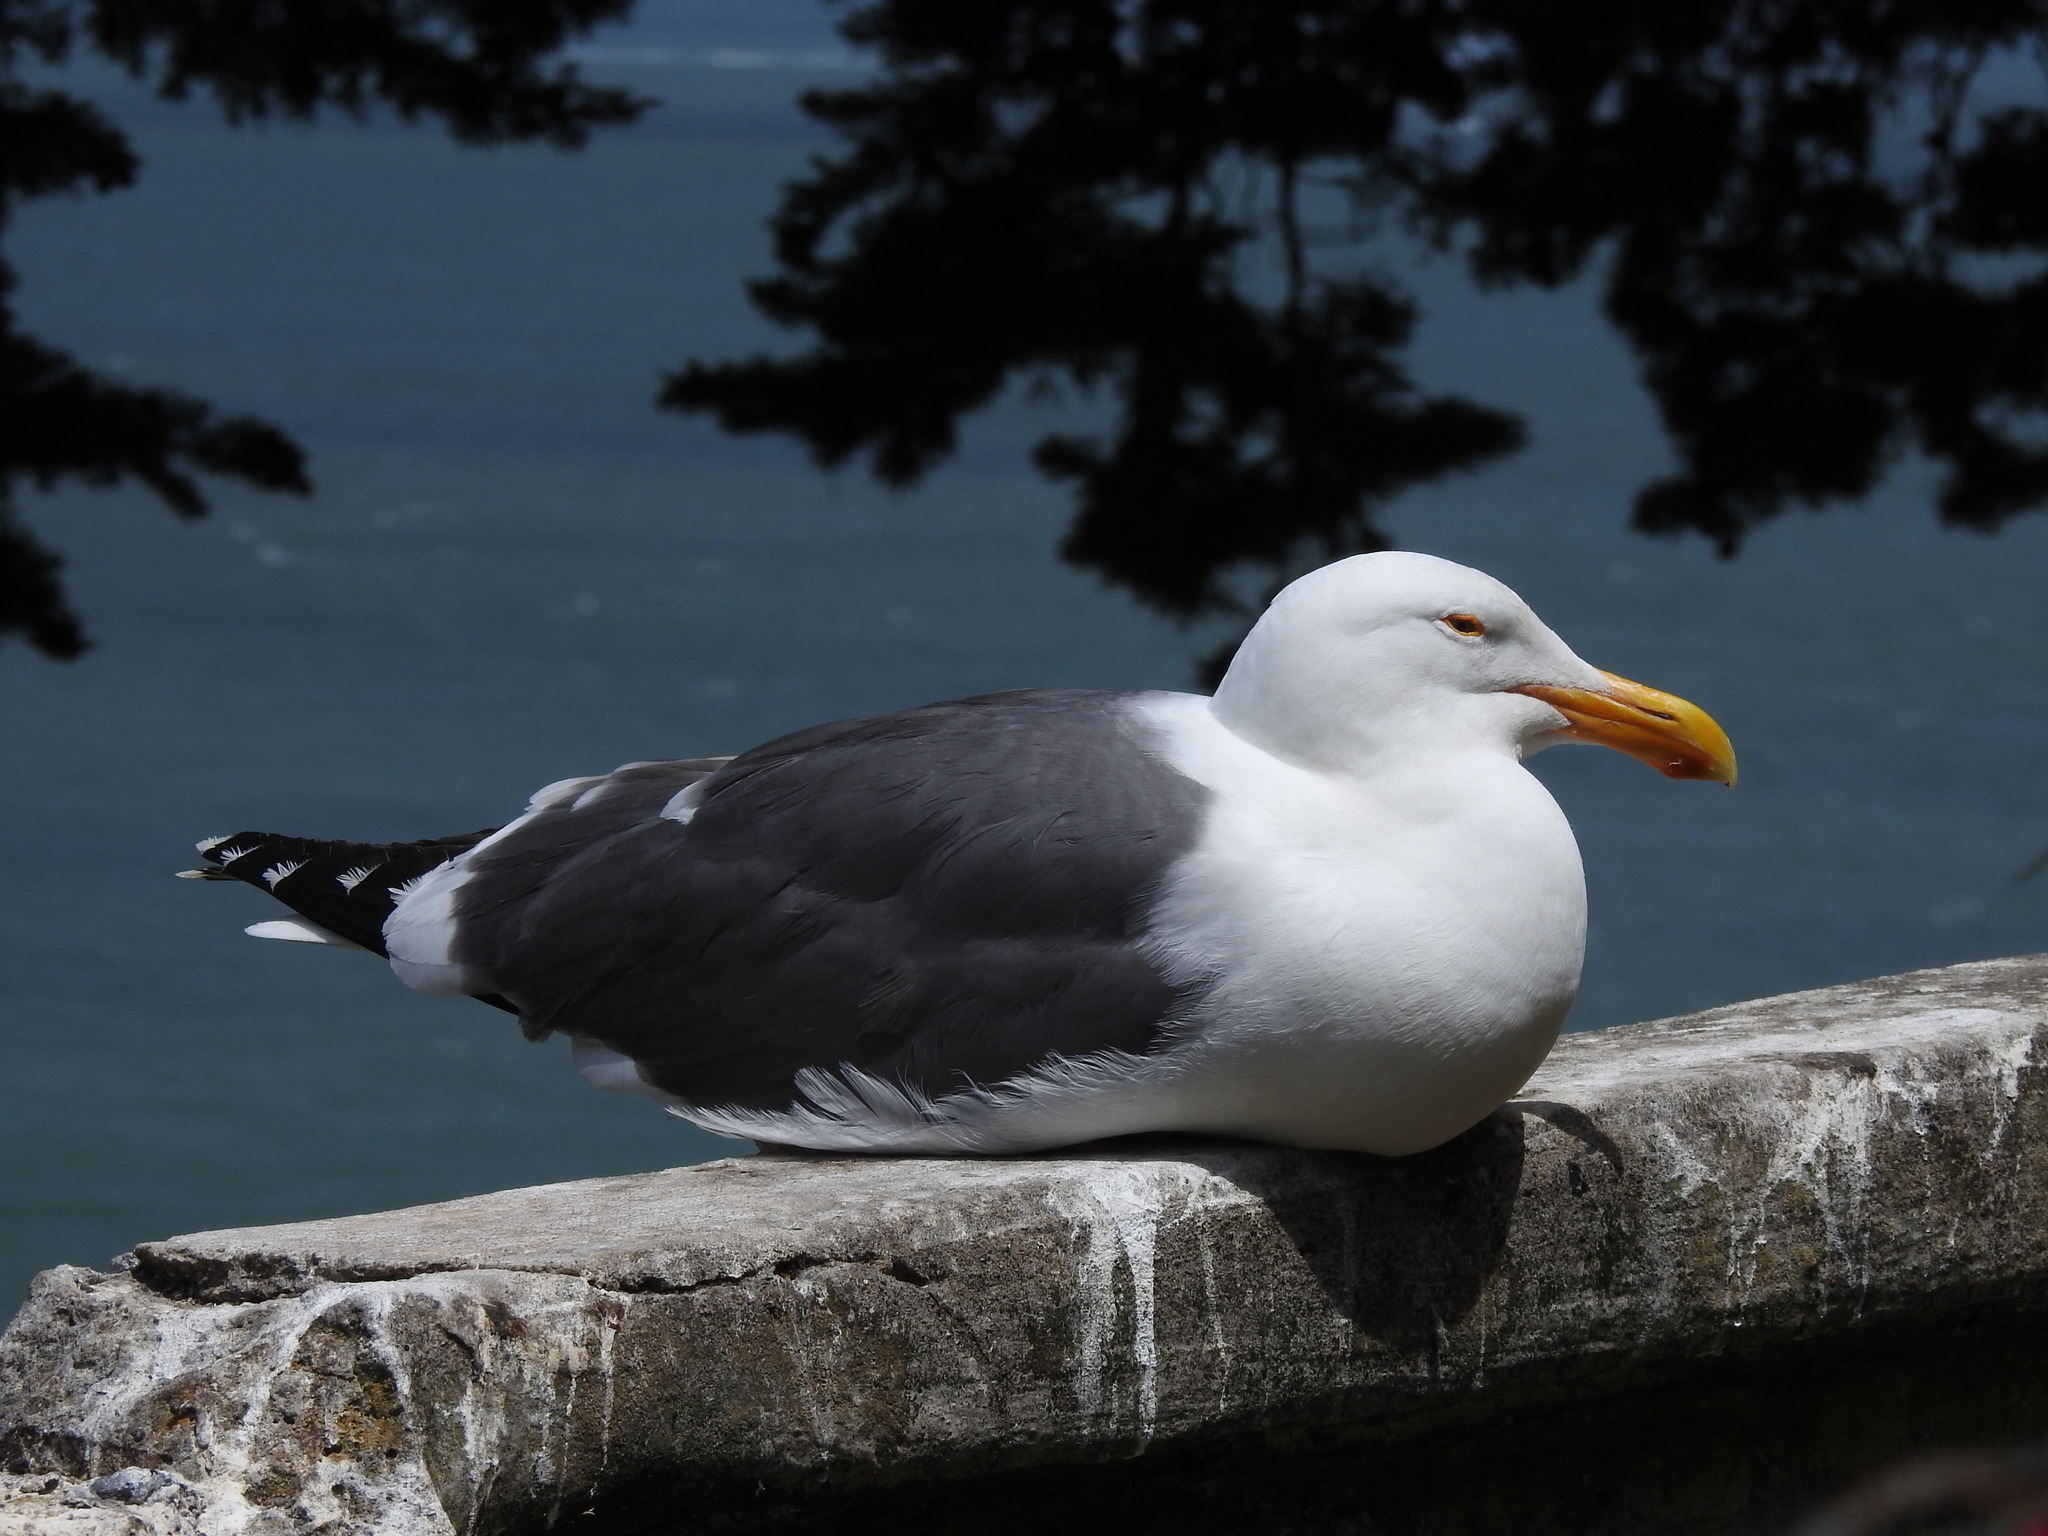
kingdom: Animalia
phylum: Chordata
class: Aves
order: Charadriiformes
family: Laridae
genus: Larus
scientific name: Larus occidentalis
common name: Western gull
